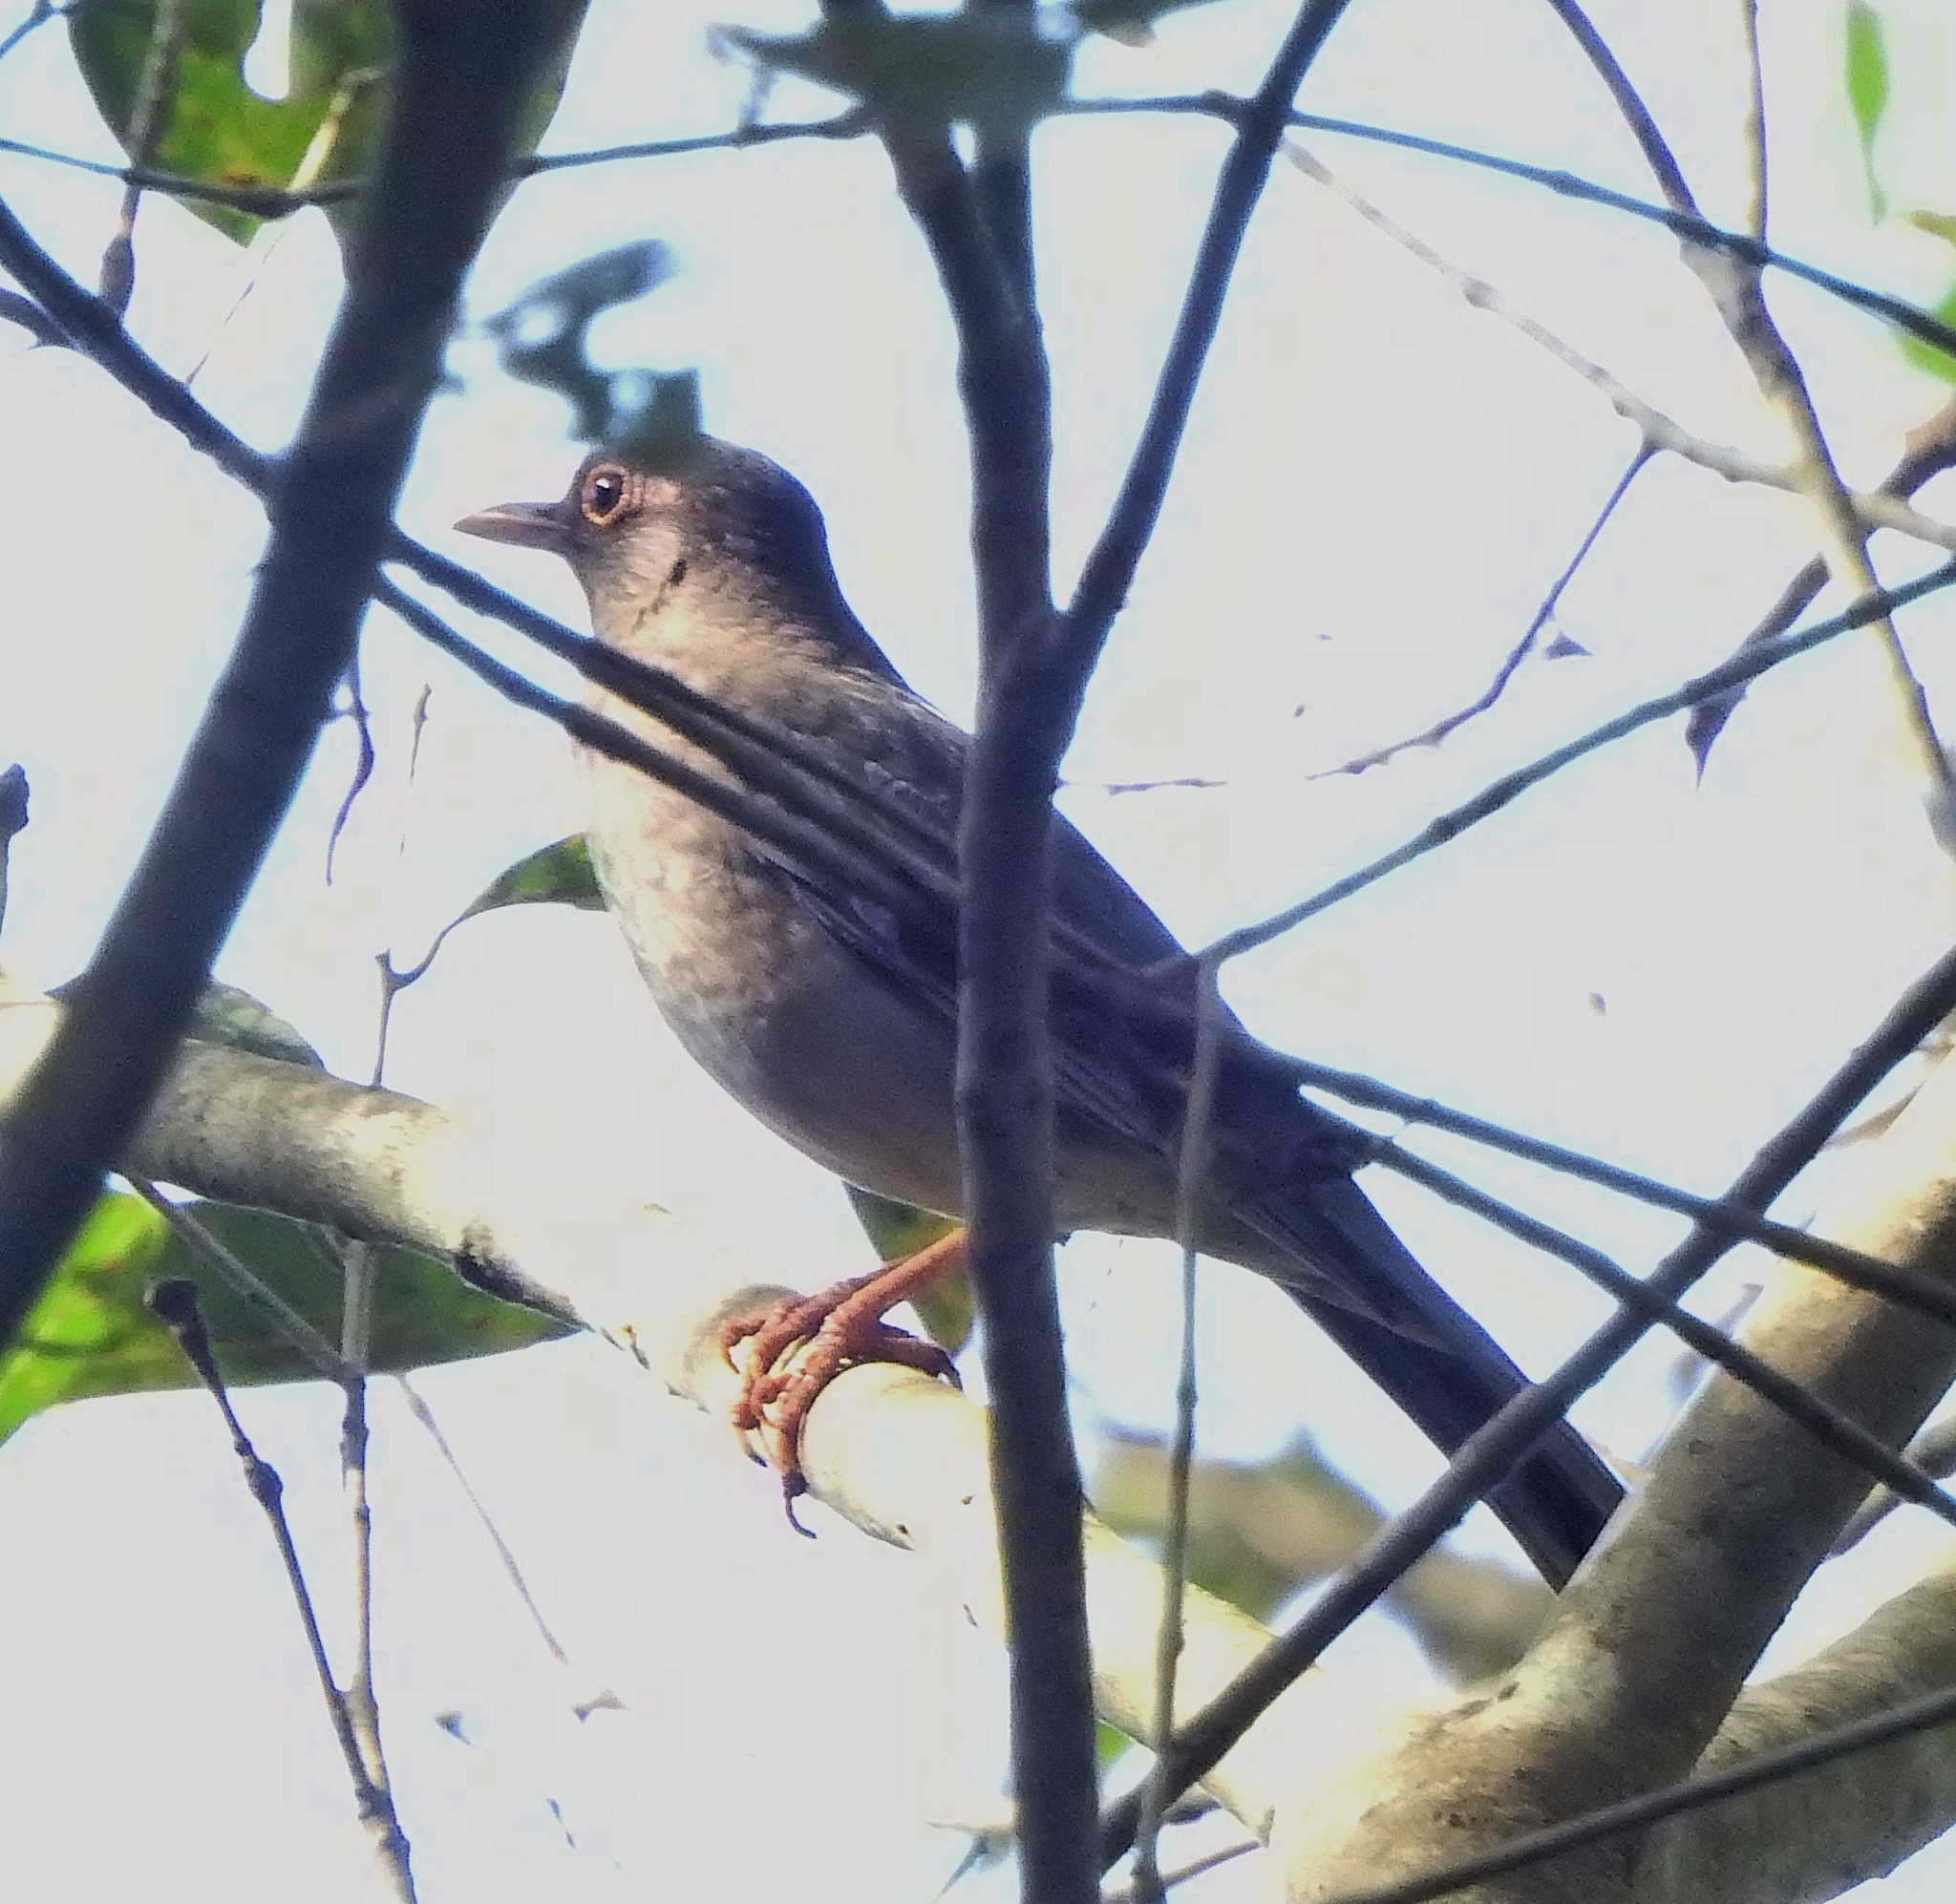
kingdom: Animalia
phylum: Chordata
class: Aves
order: Passeriformes
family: Turdidae
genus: Turdus
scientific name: Turdus simillimus
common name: Indian blackbird
